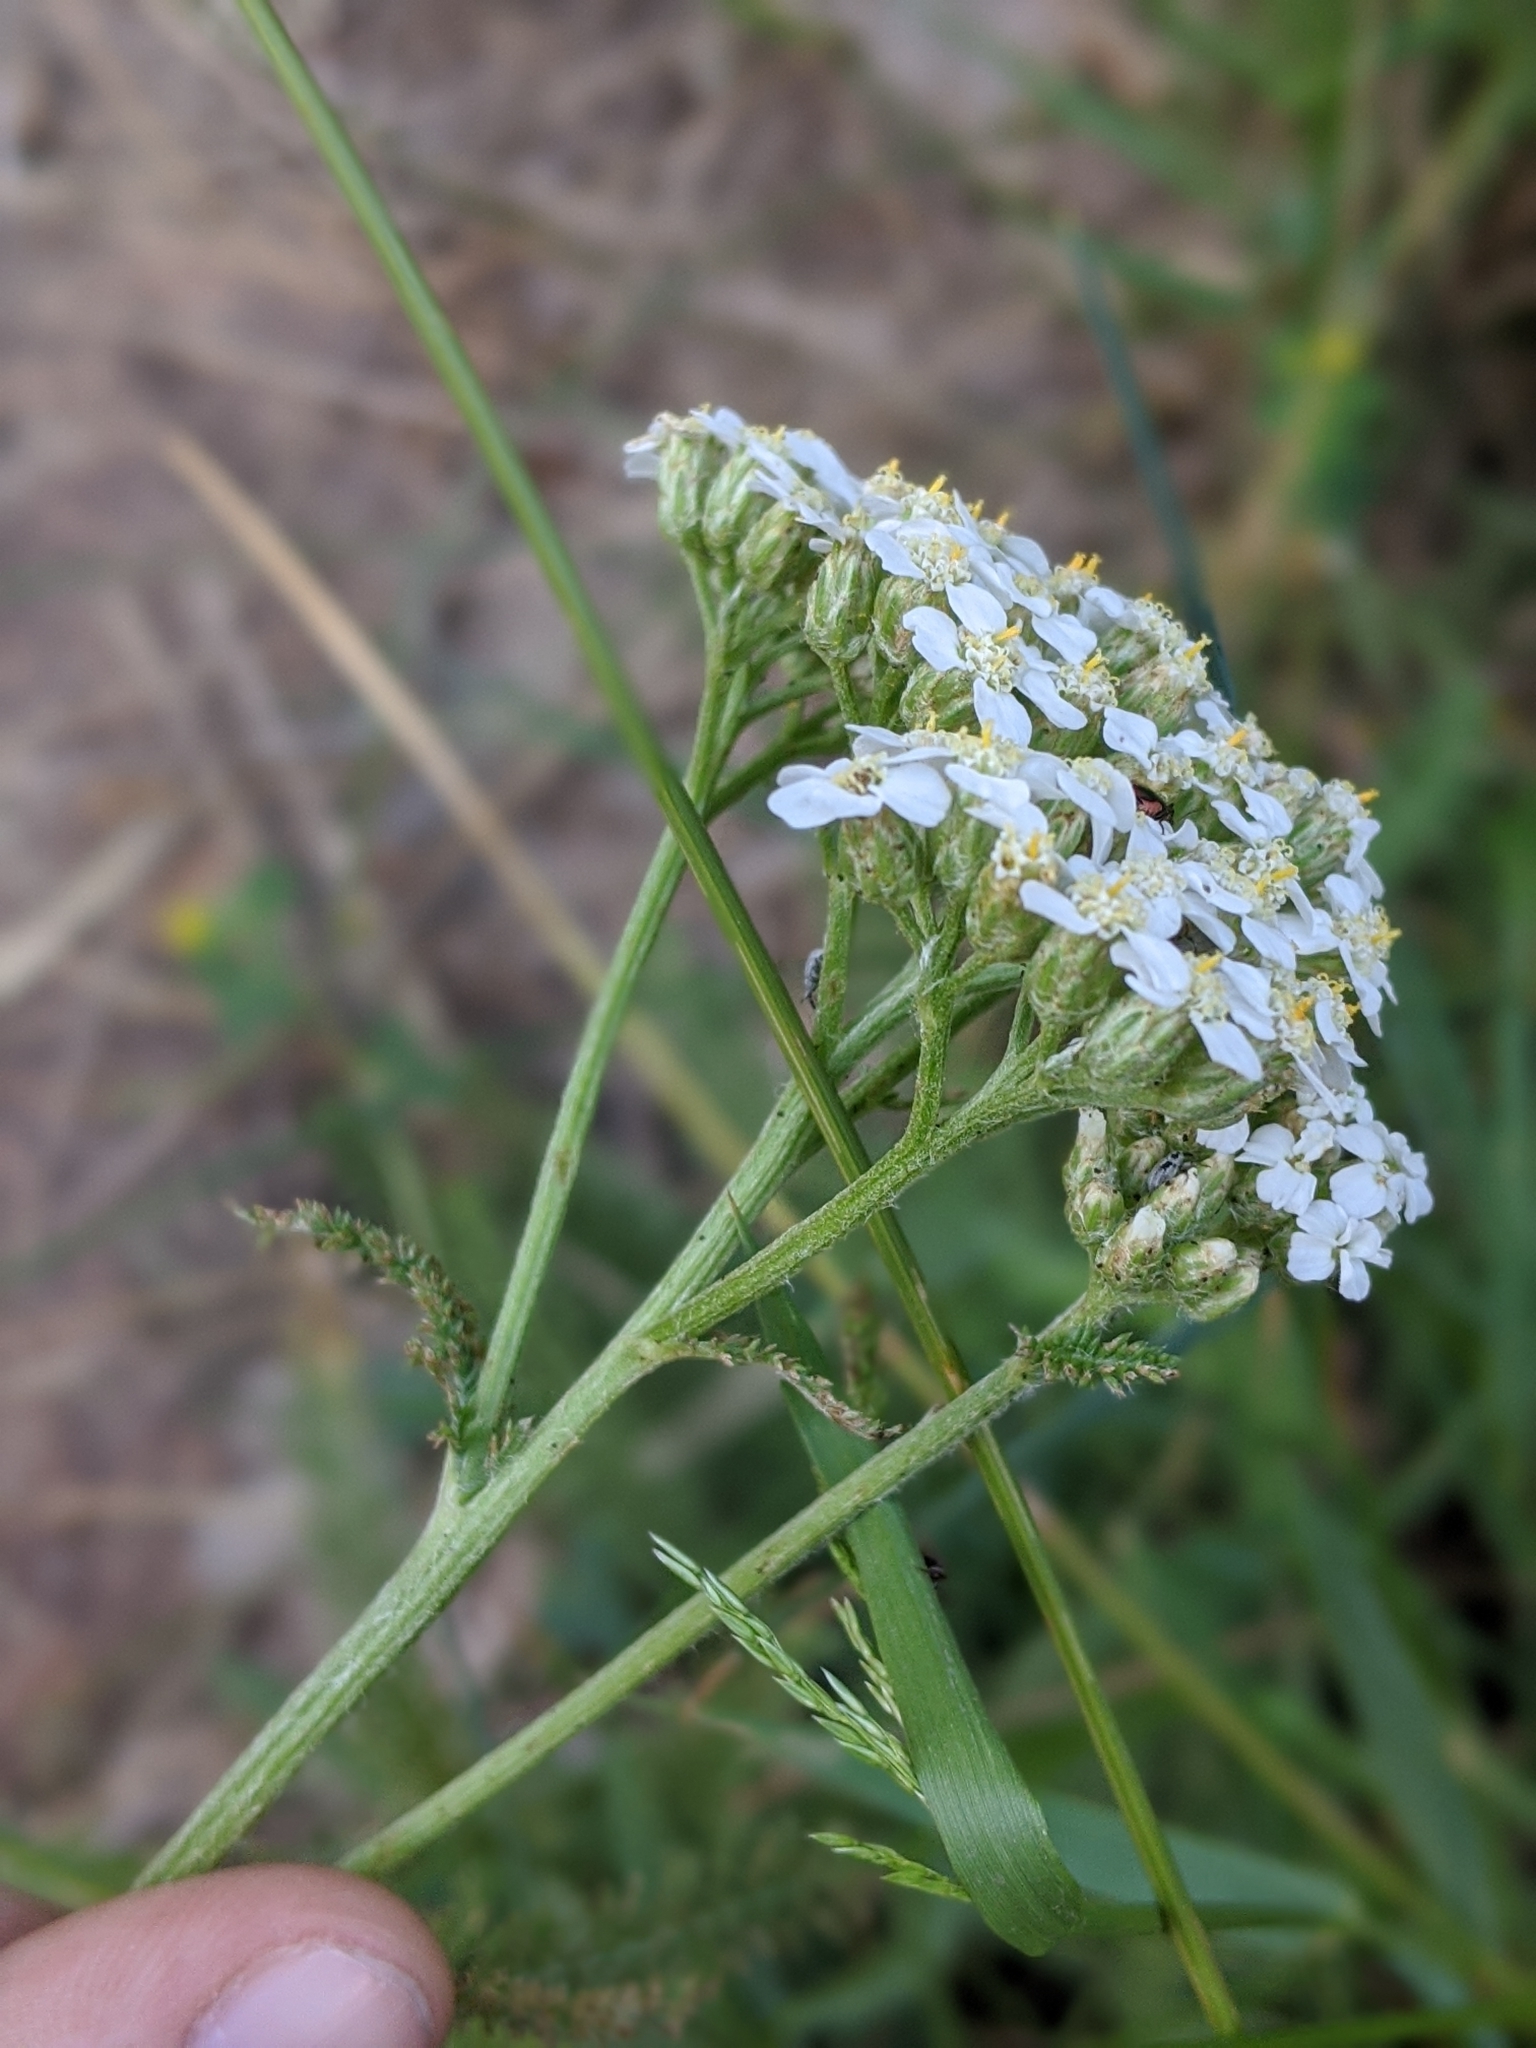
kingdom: Plantae
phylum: Tracheophyta
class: Magnoliopsida
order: Asterales
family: Asteraceae
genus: Achillea
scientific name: Achillea millefolium
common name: Yarrow
